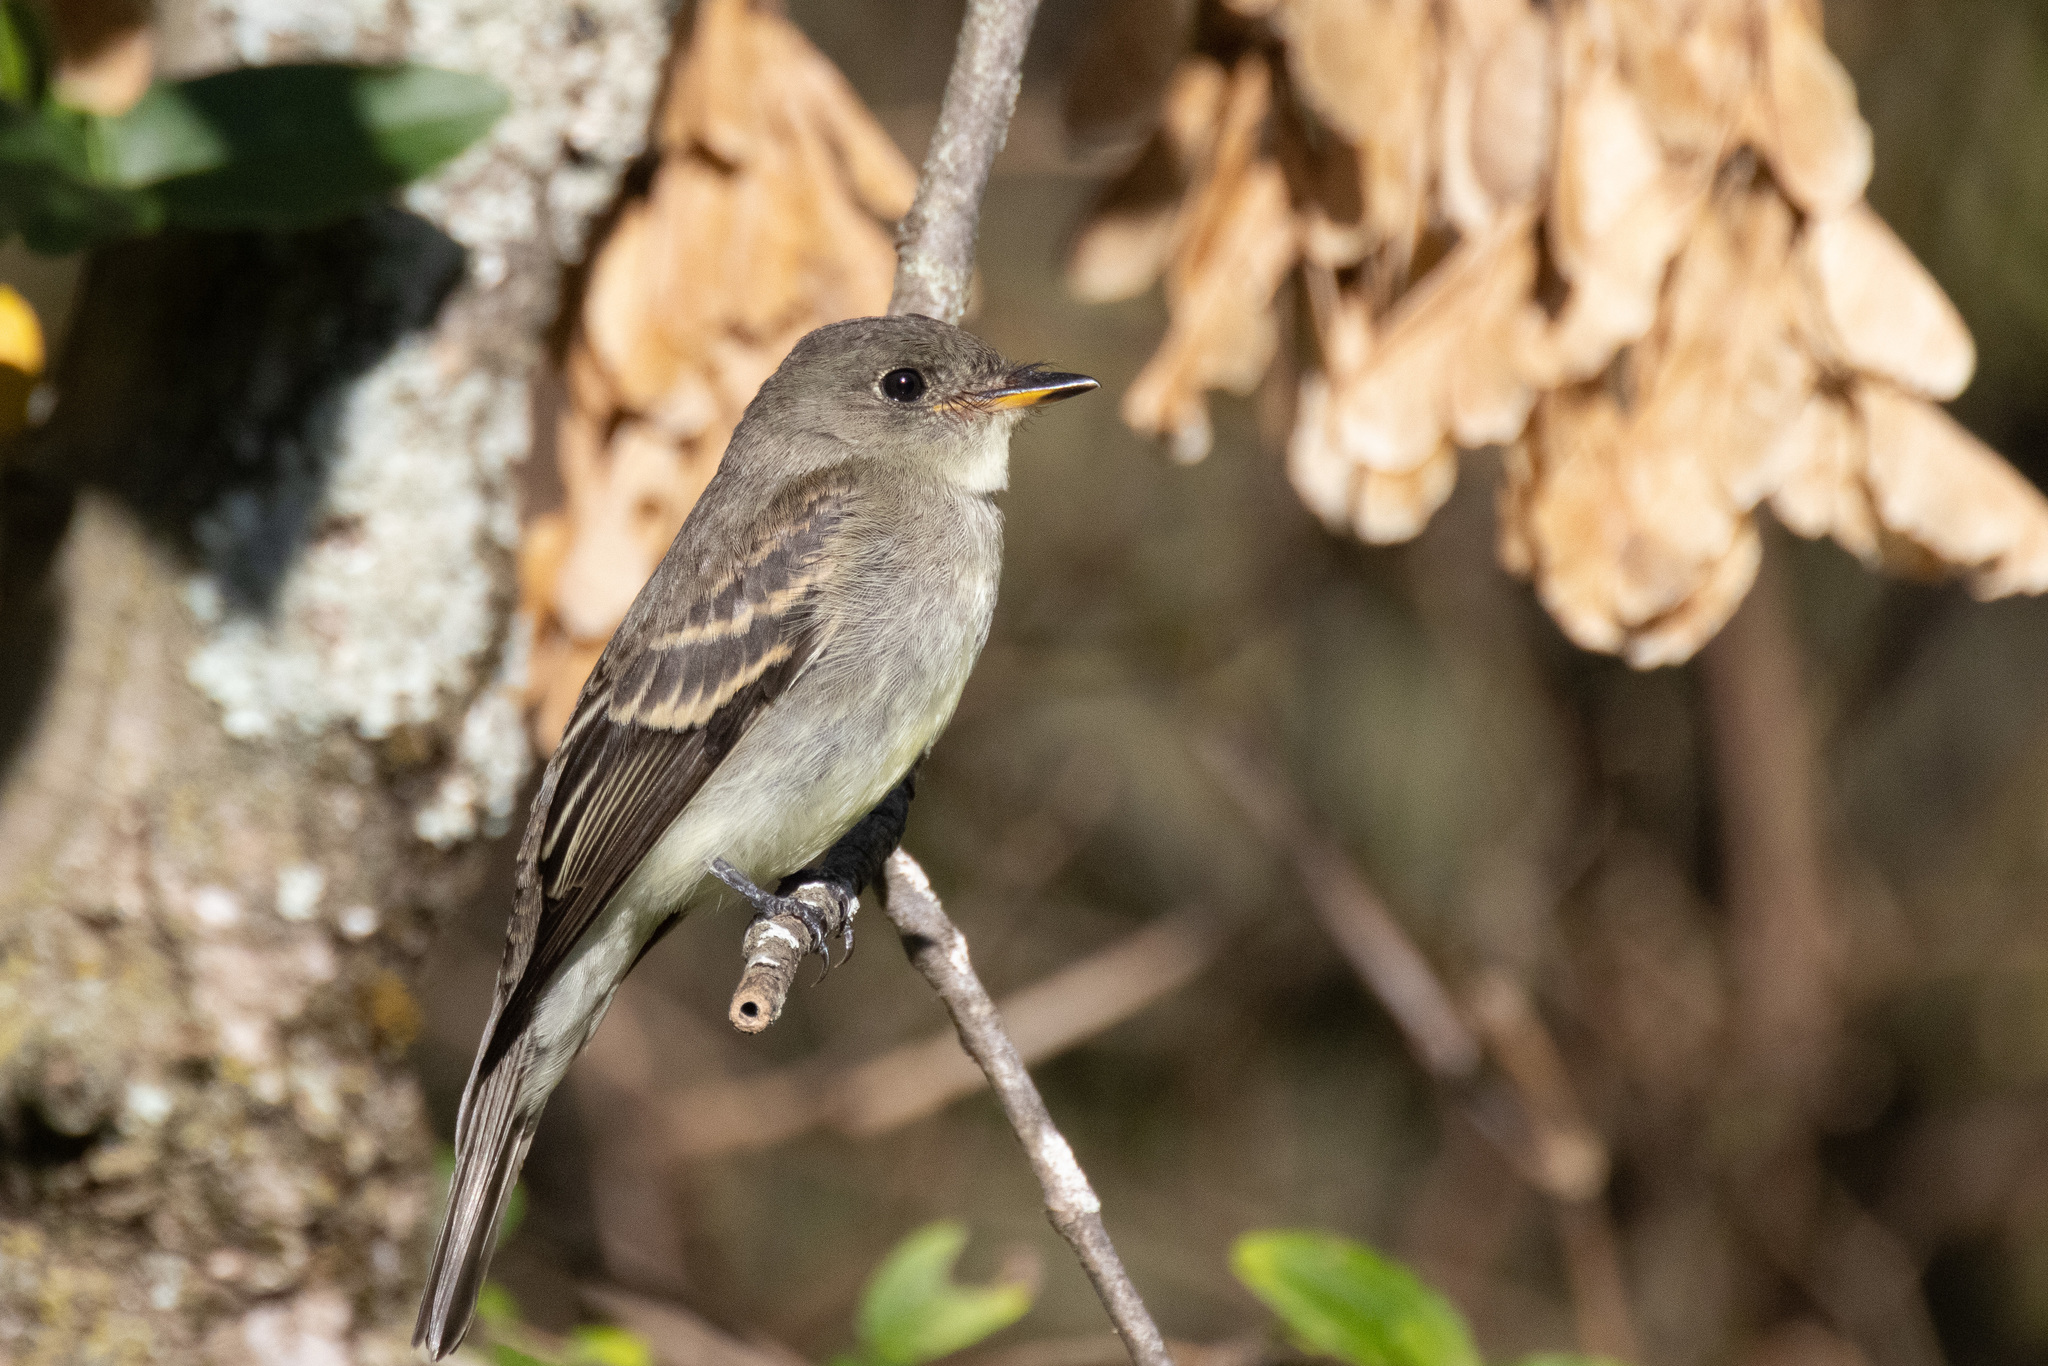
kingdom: Animalia
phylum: Chordata
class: Aves
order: Passeriformes
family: Tyrannidae
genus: Contopus
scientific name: Contopus virens
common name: Eastern wood-pewee
